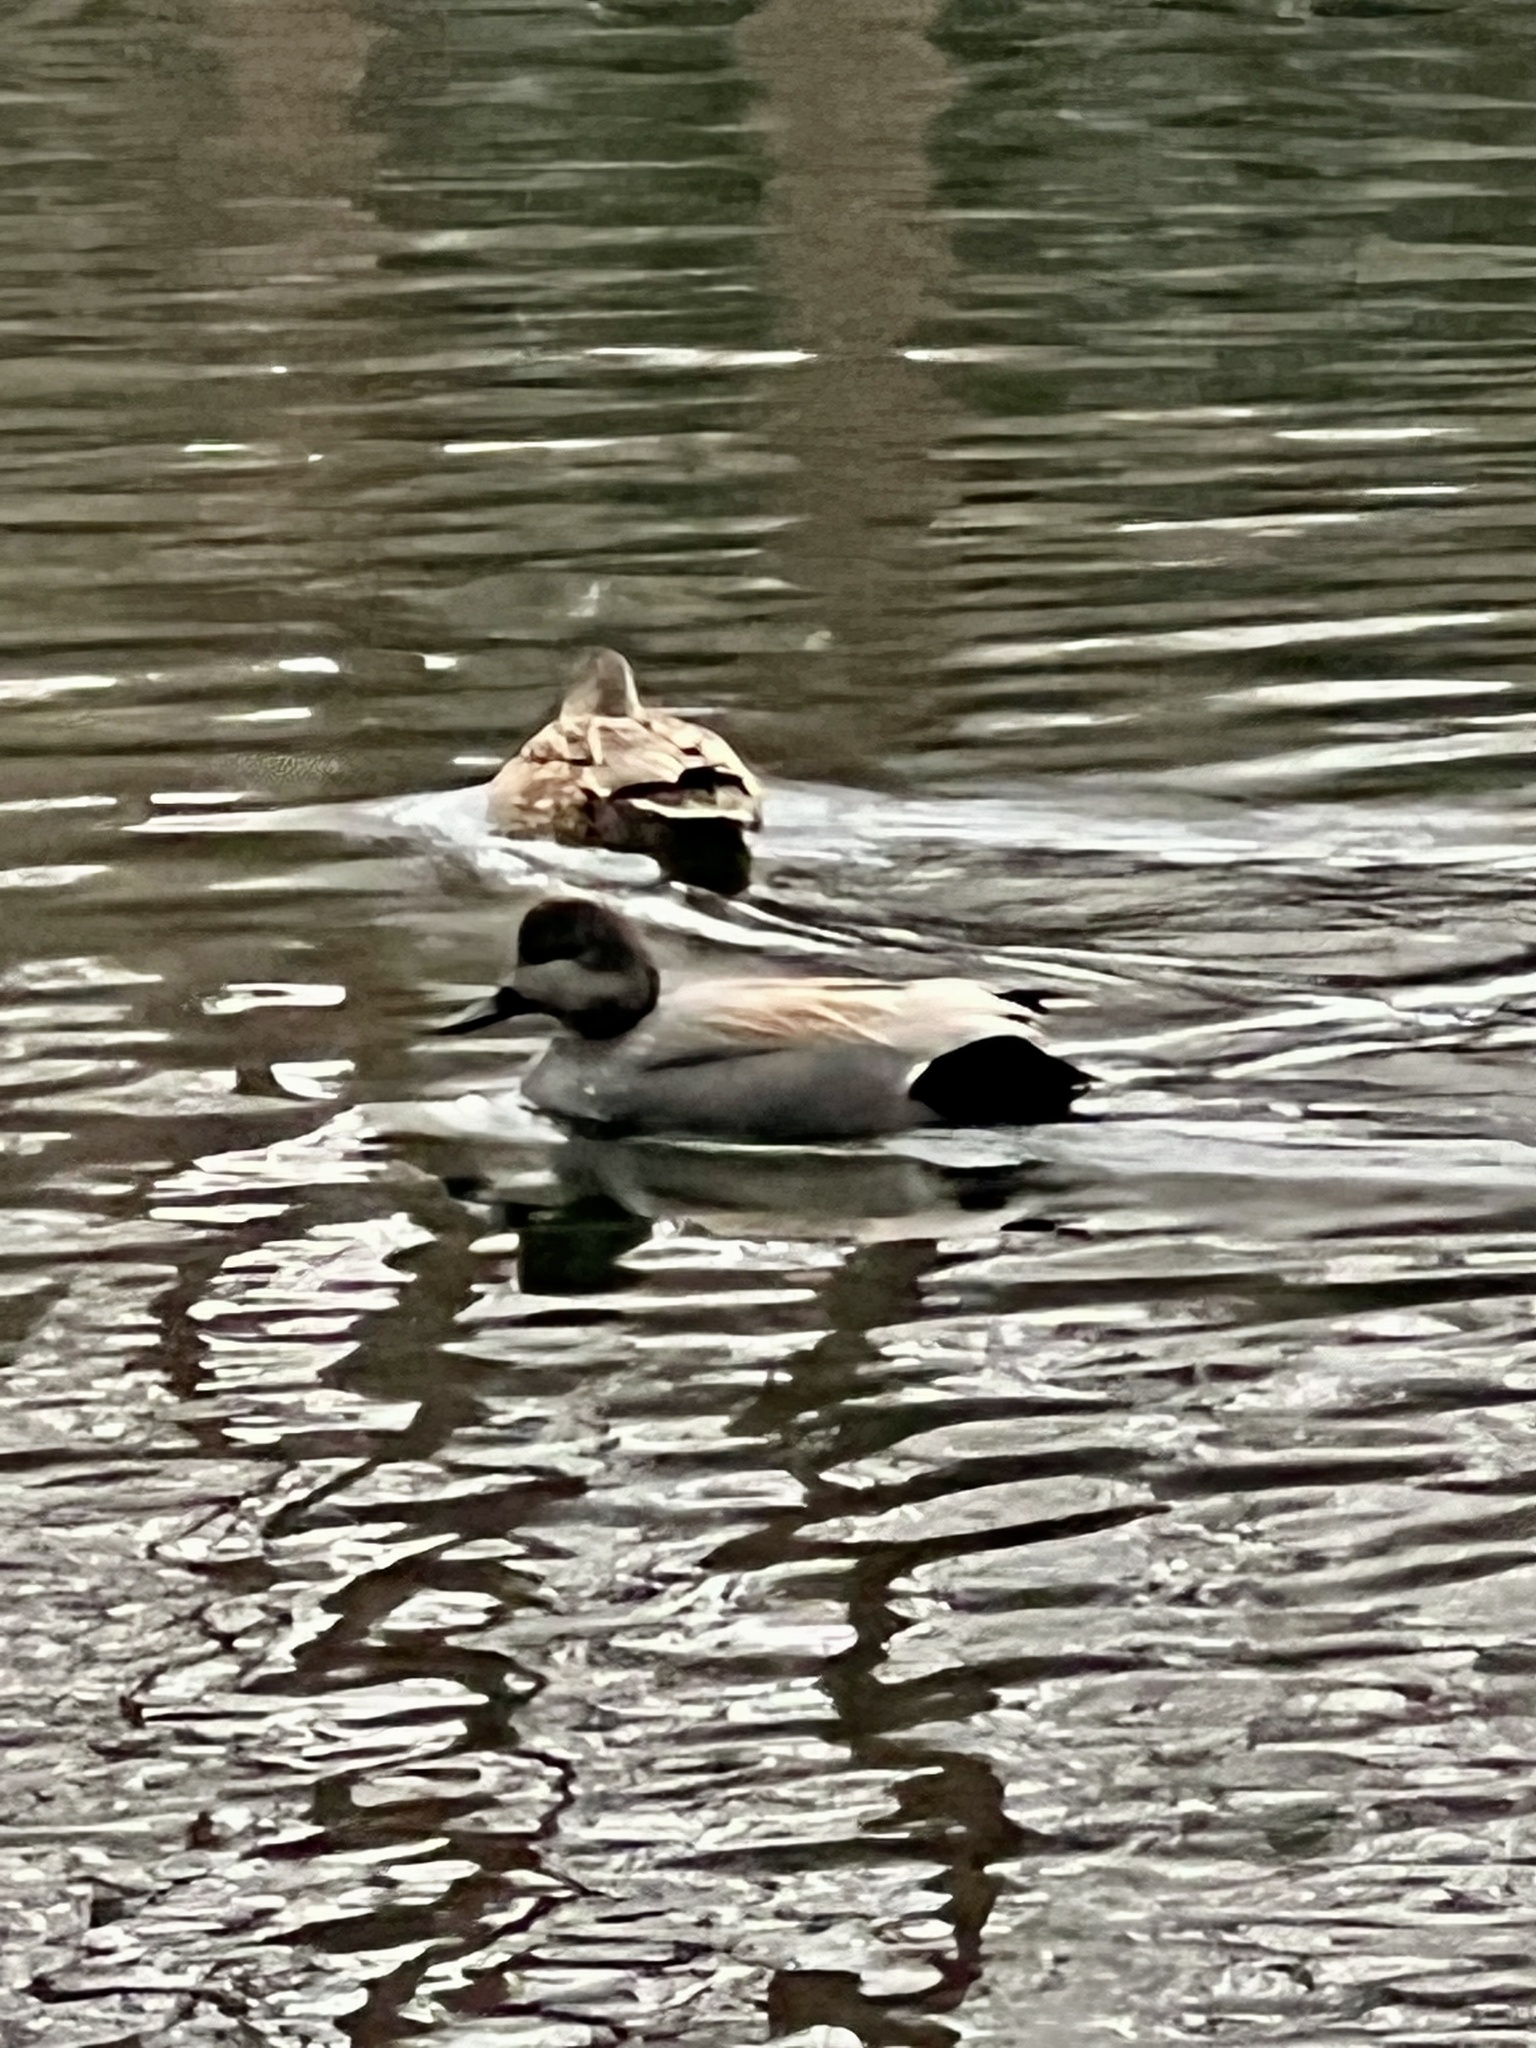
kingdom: Animalia
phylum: Chordata
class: Aves
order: Anseriformes
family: Anatidae
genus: Mareca
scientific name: Mareca strepera
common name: Gadwall
